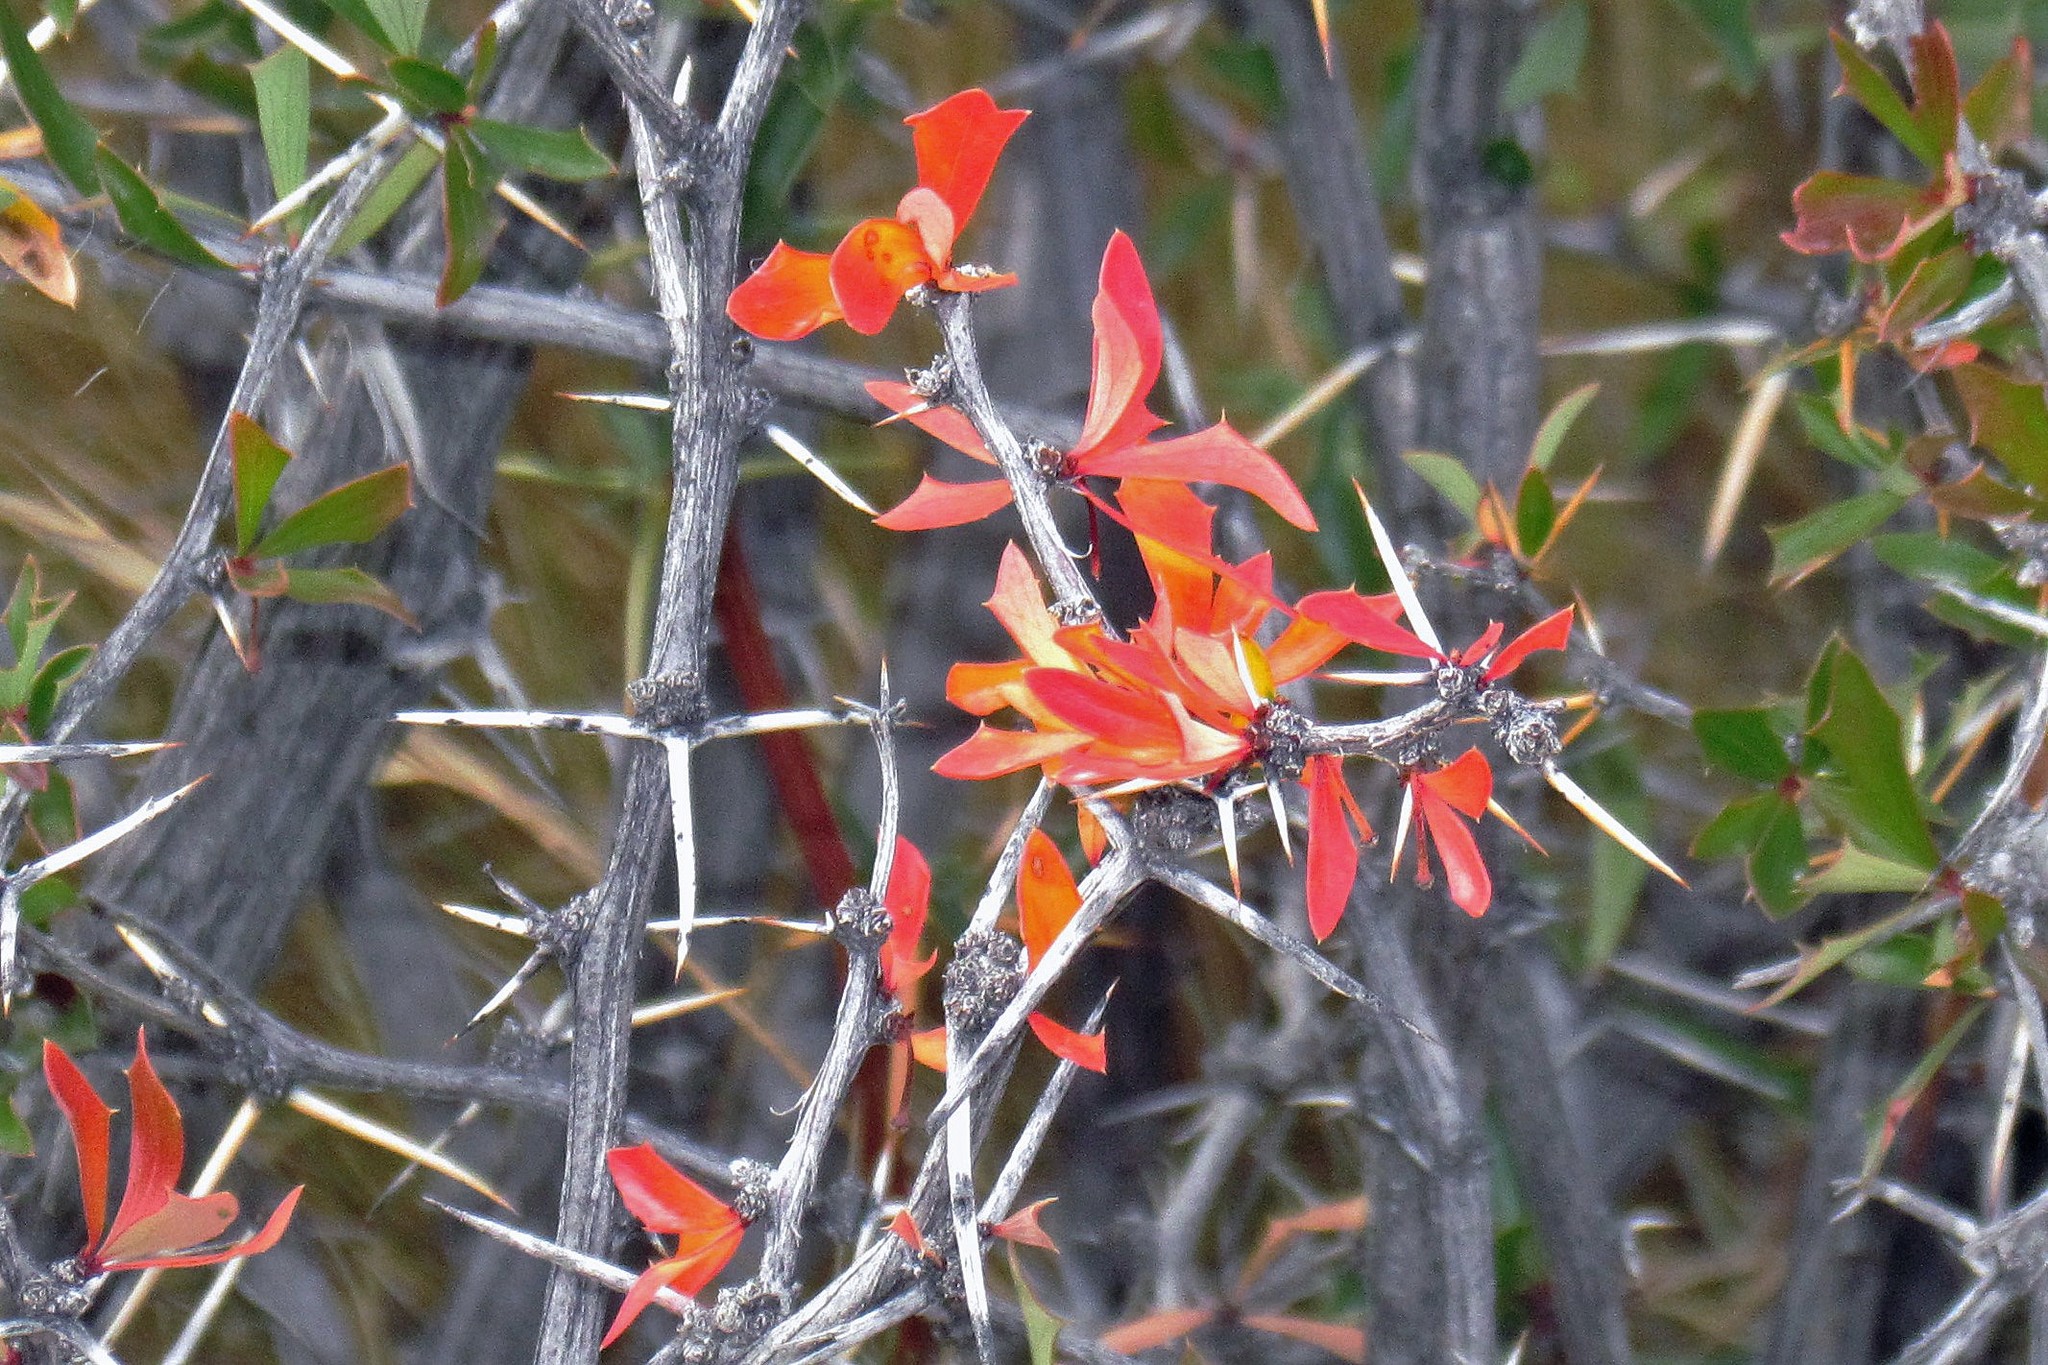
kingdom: Plantae
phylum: Tracheophyta
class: Magnoliopsida
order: Ranunculales
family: Berberidaceae
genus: Berberis
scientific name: Berberis chilensis
